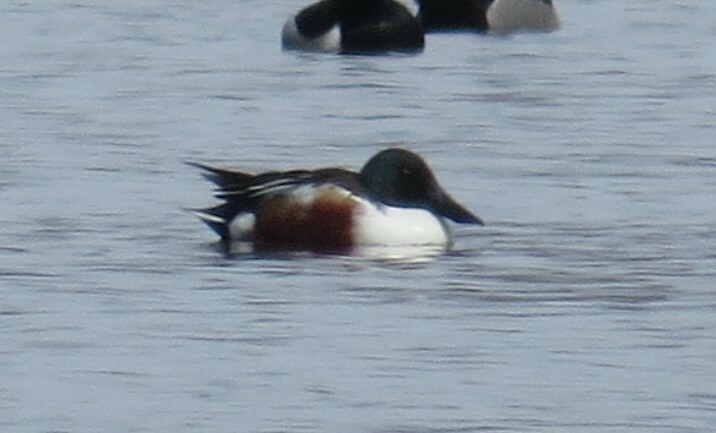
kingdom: Animalia
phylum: Chordata
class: Aves
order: Anseriformes
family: Anatidae
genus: Spatula
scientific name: Spatula clypeata
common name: Northern shoveler
